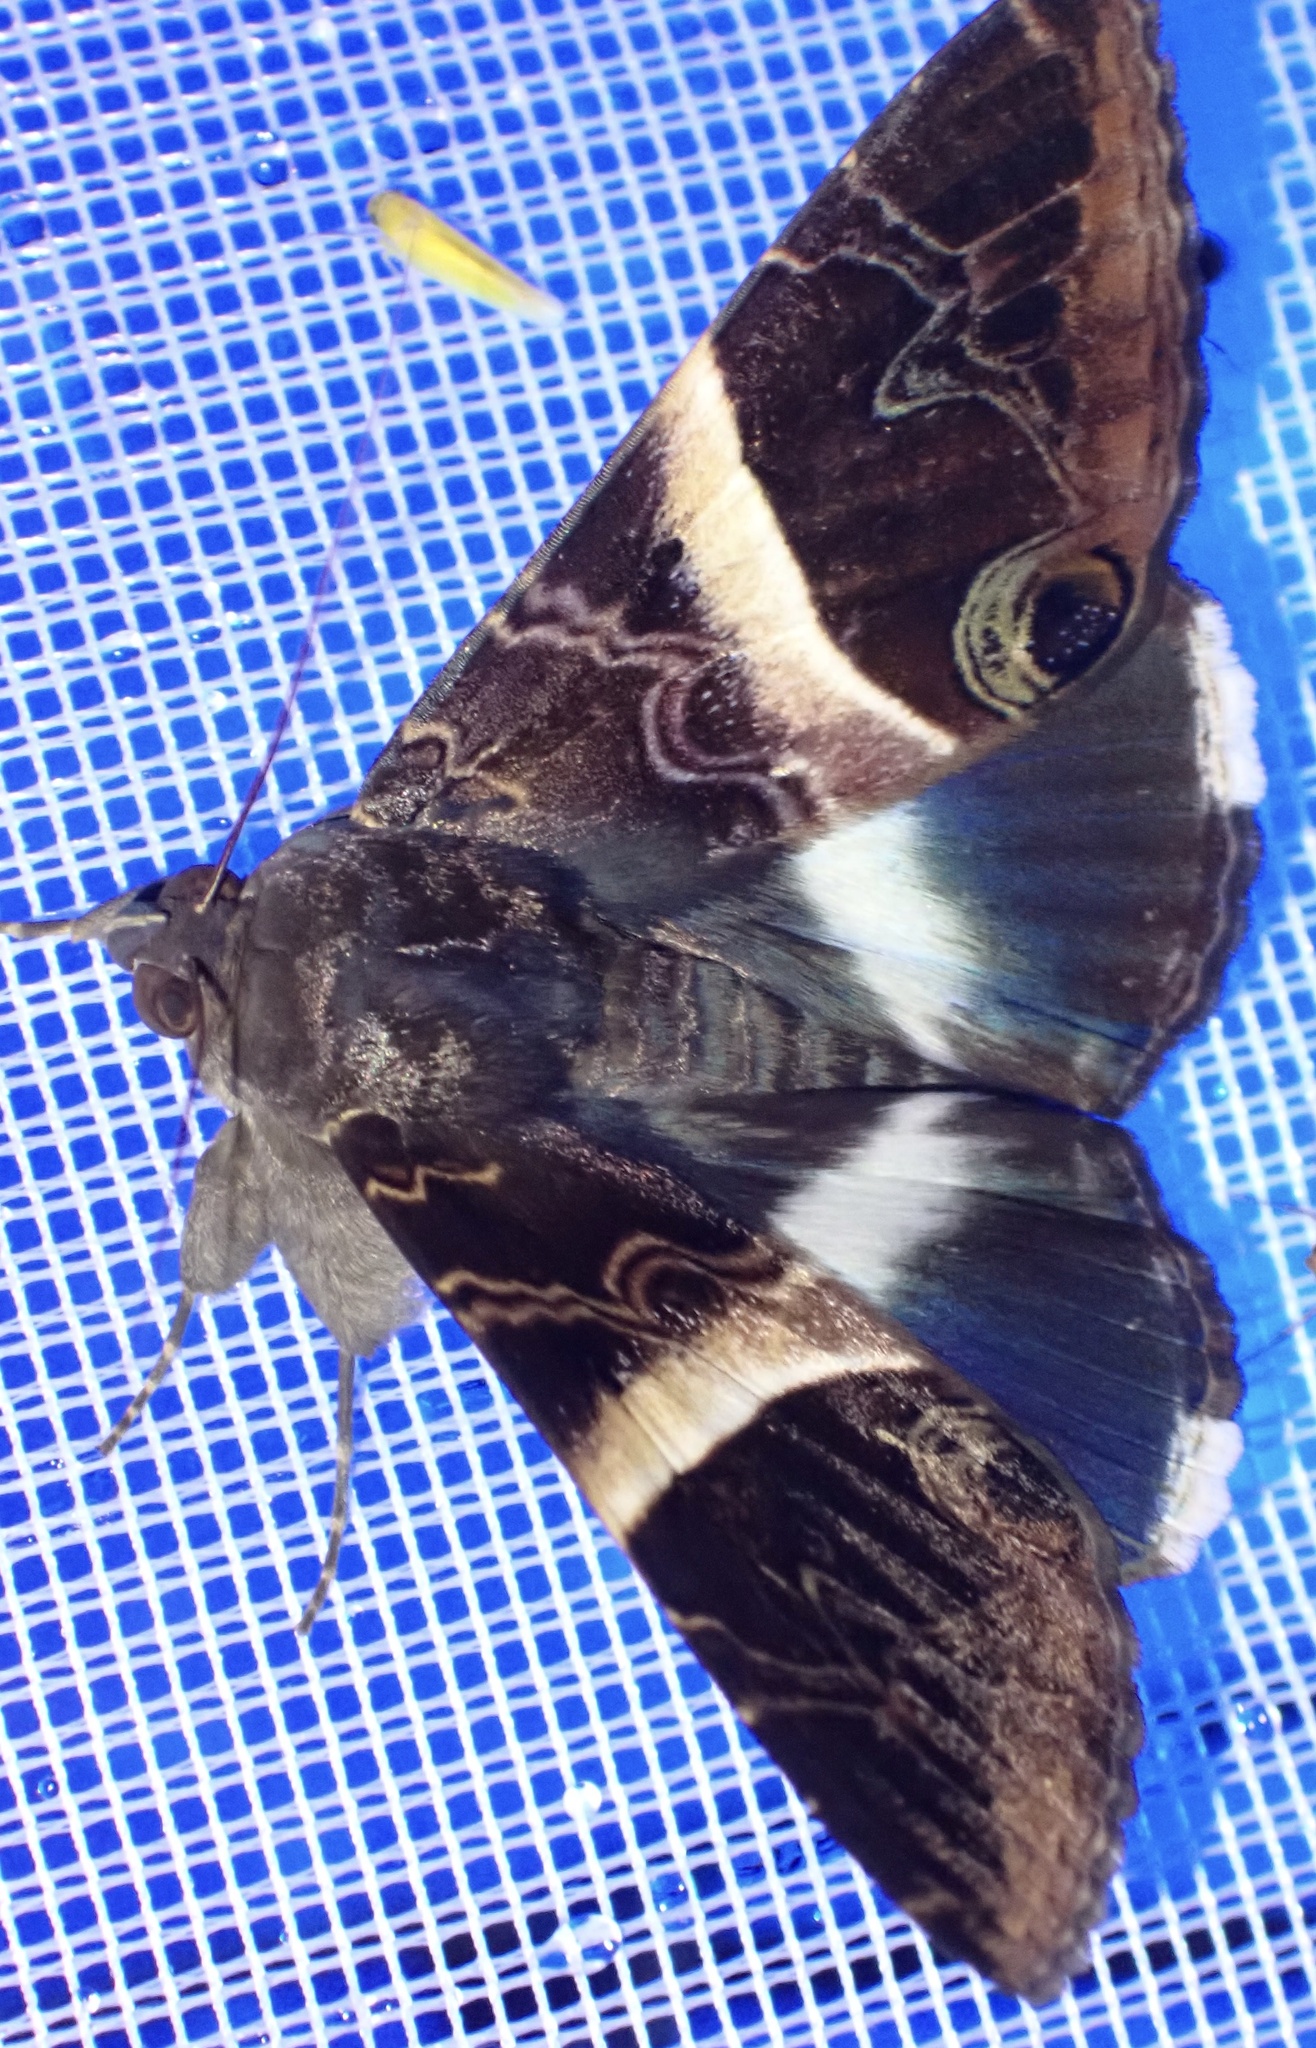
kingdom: Animalia
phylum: Arthropoda
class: Insecta
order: Lepidoptera
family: Erebidae
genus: Leistera
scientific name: Leistera pulchristrigata
